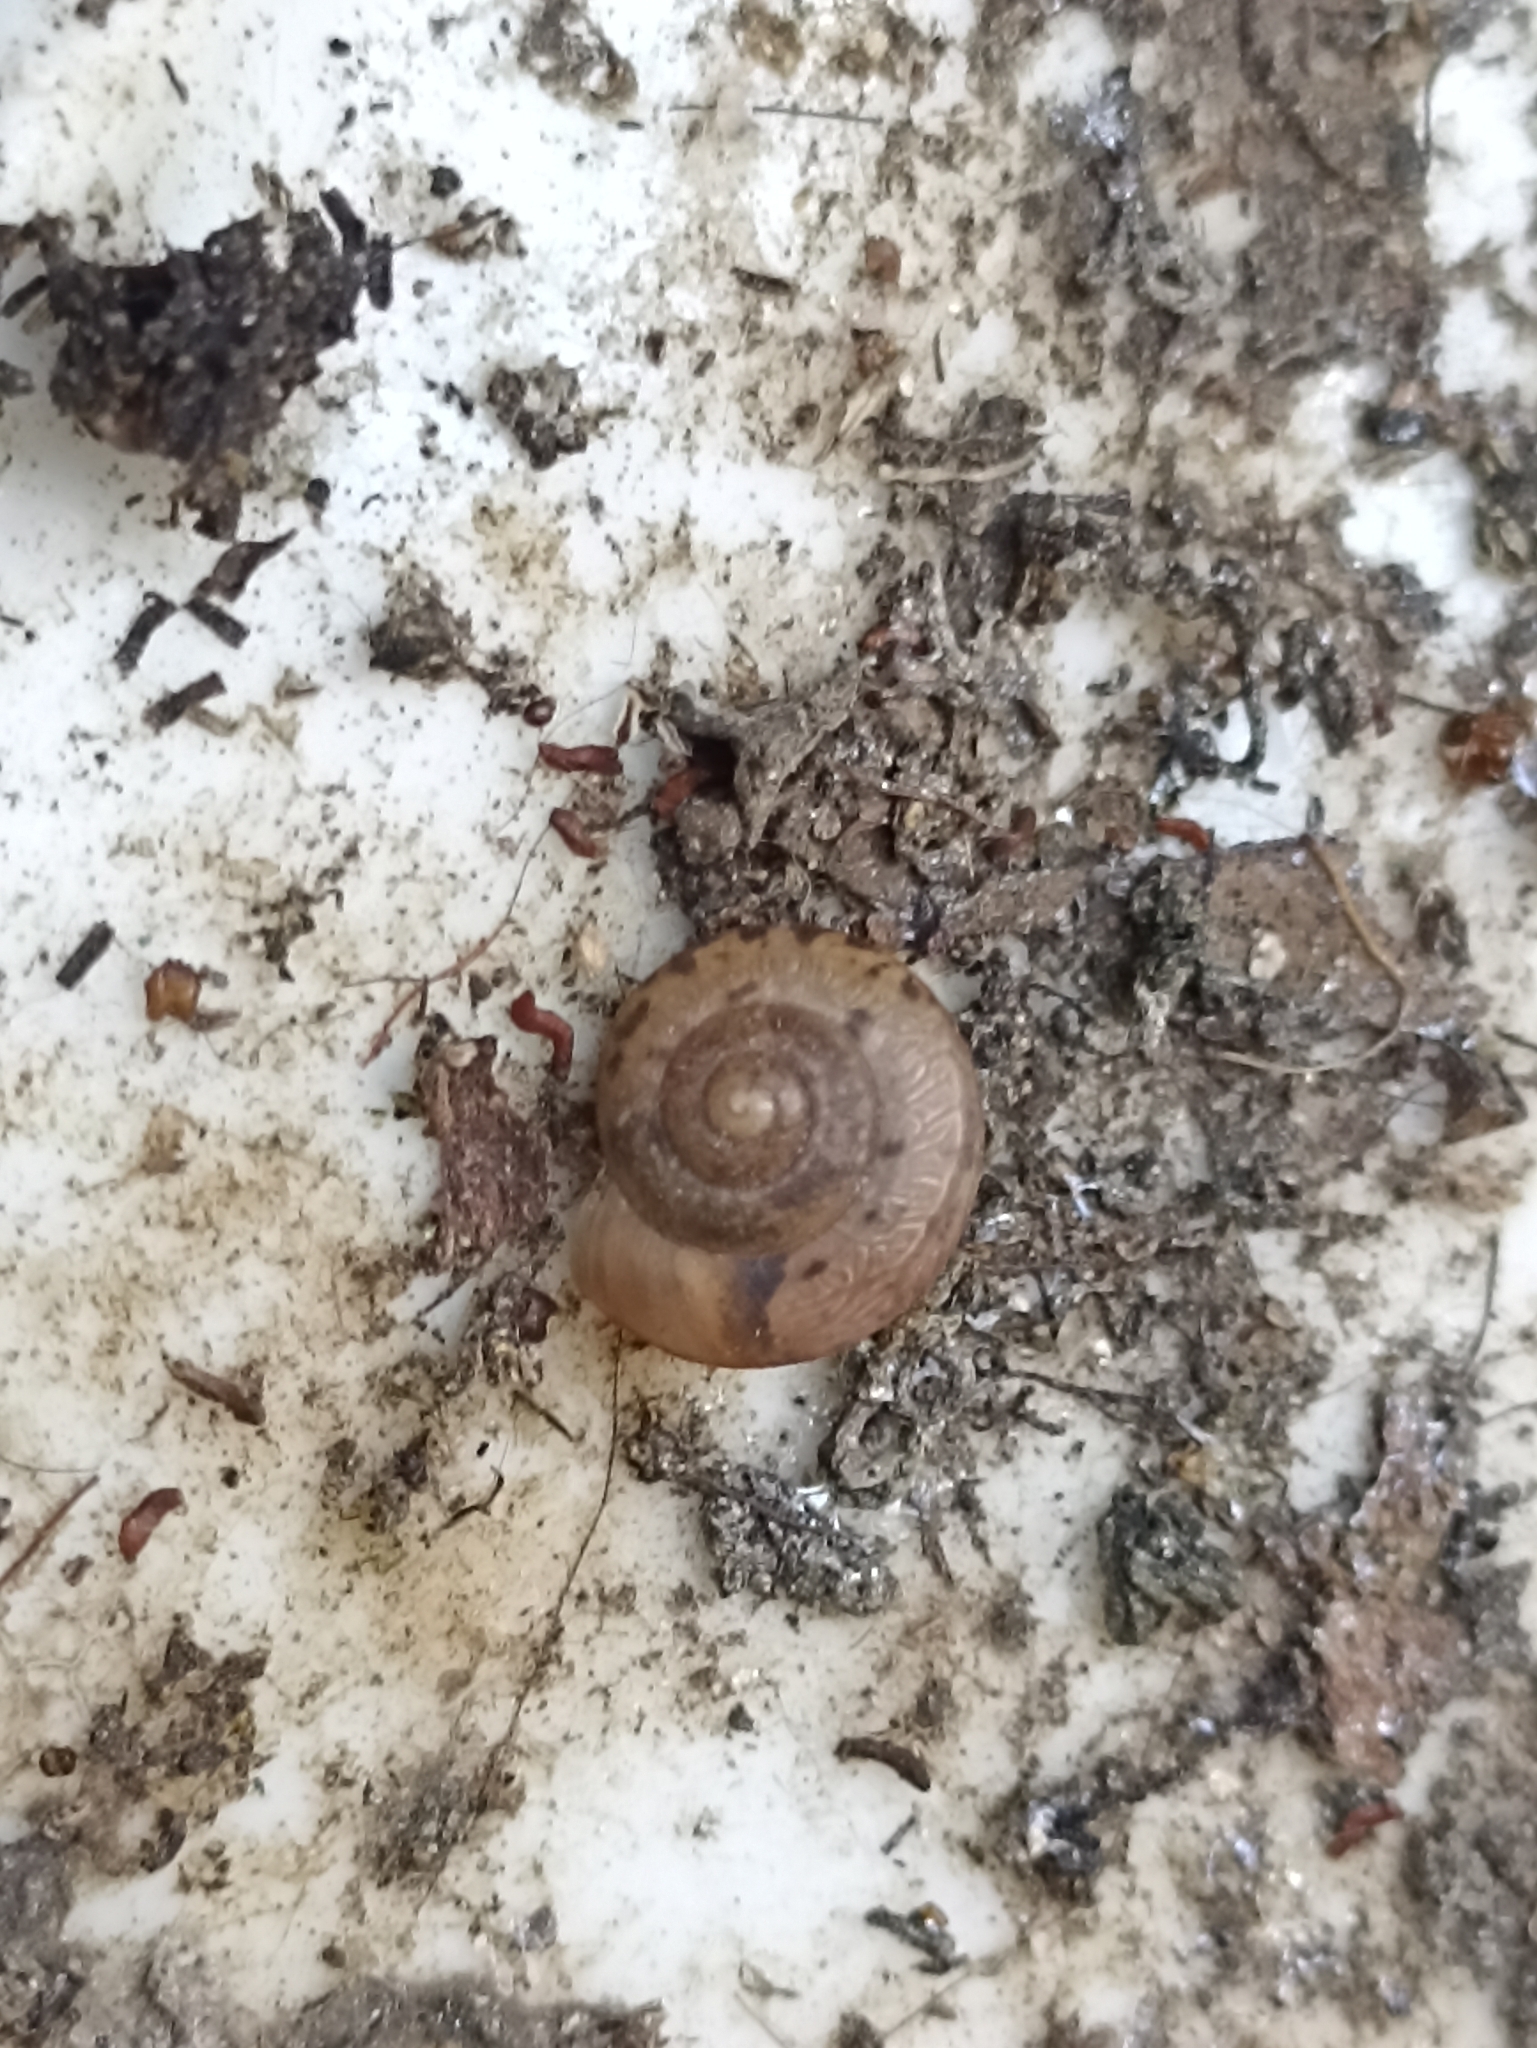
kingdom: Animalia
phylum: Mollusca
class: Gastropoda
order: Stylommatophora
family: Camaenidae
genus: Bradybaena
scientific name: Bradybaena similaris
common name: Asian trampsnail
